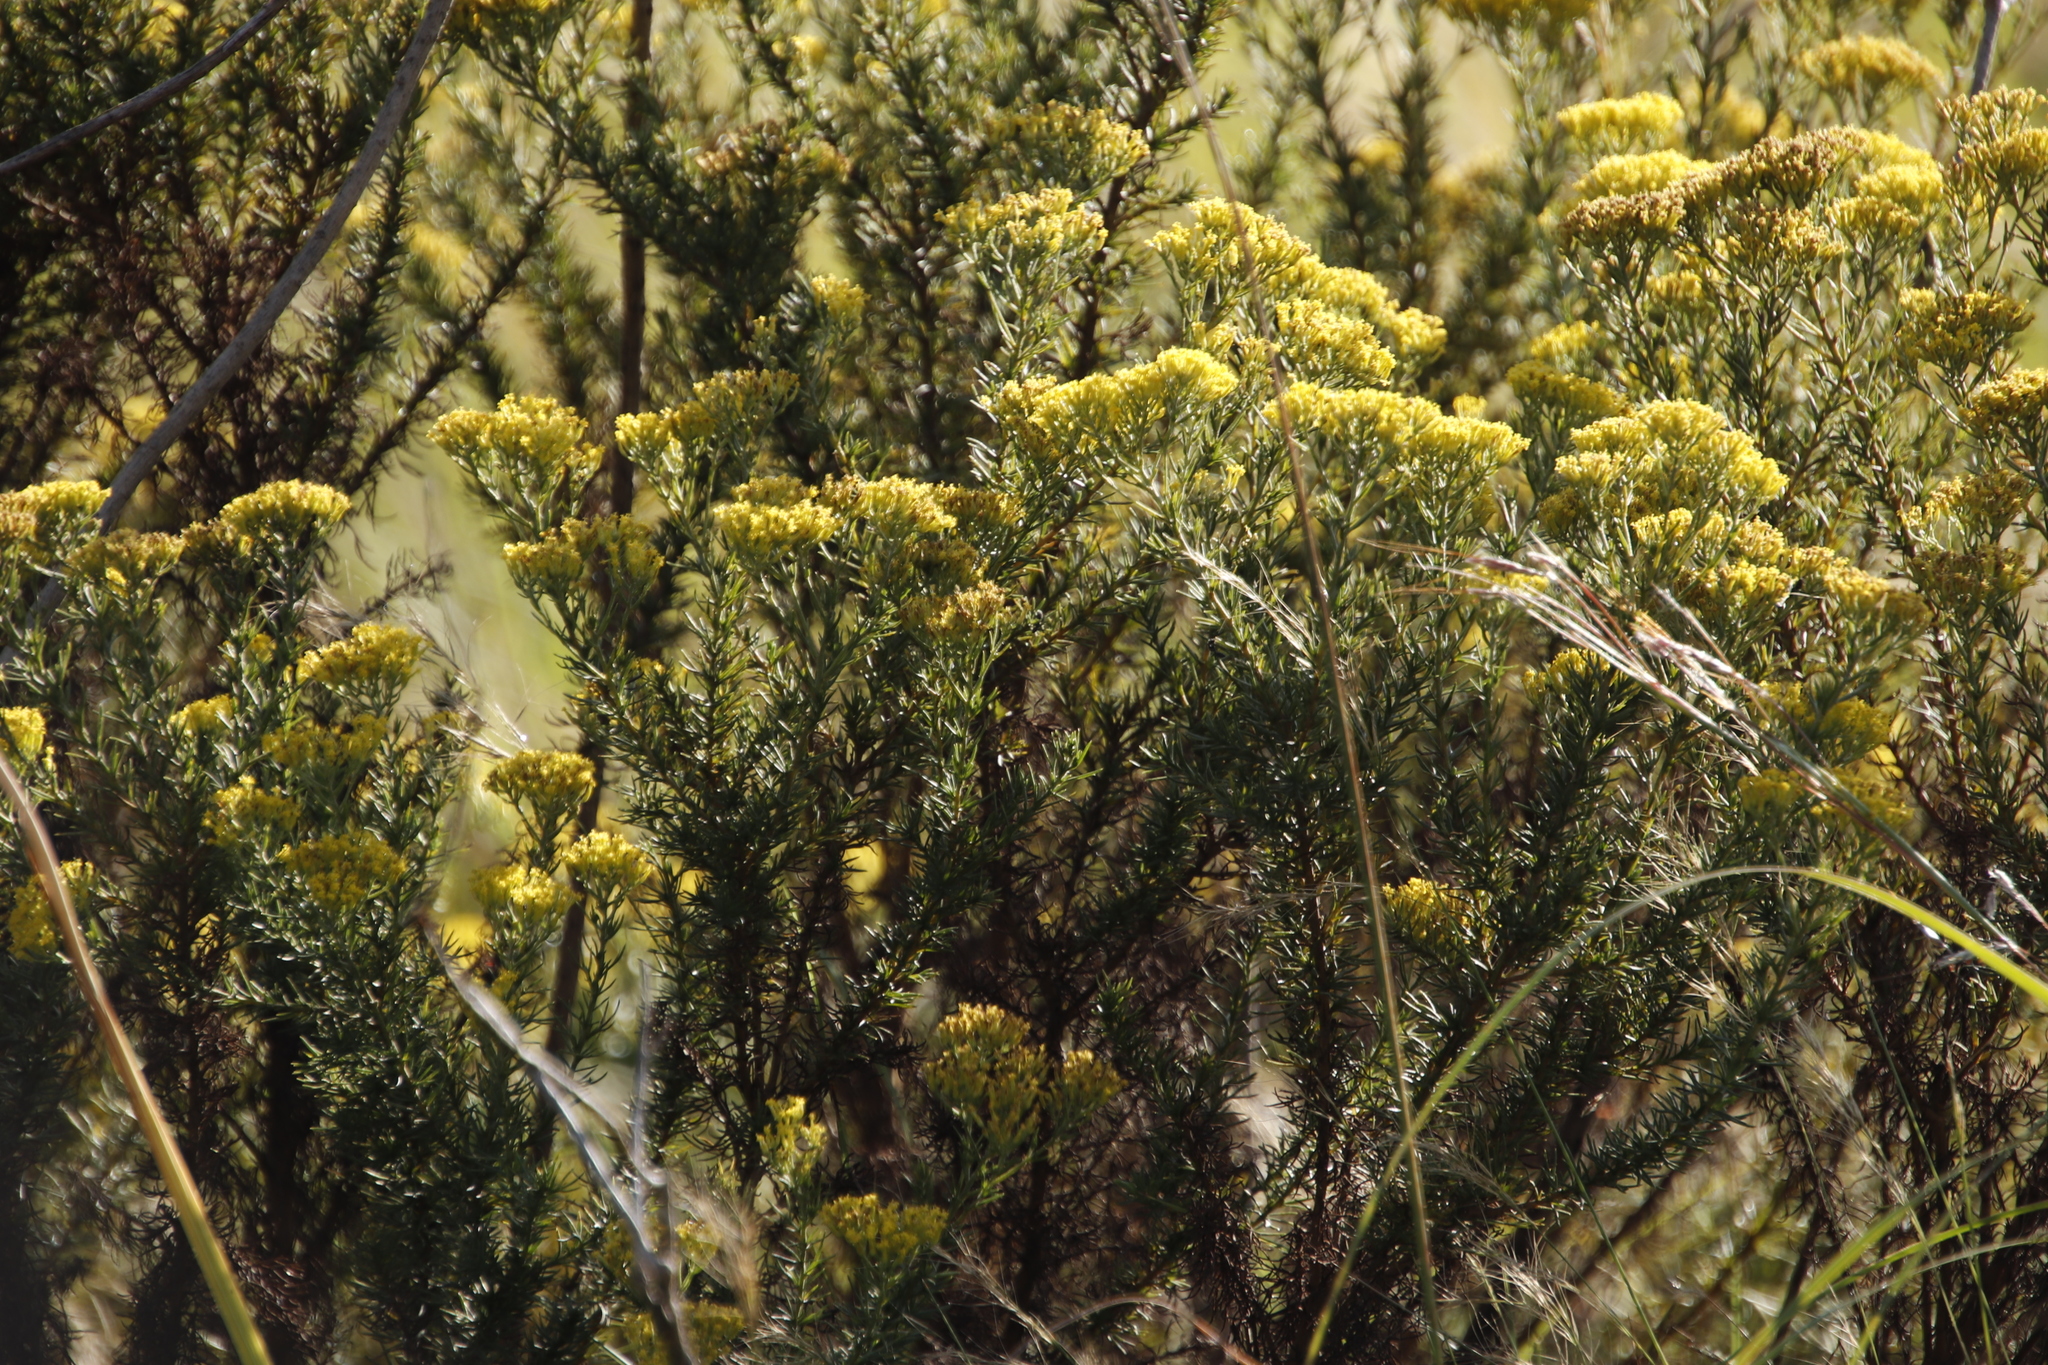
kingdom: Plantae
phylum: Tracheophyta
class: Magnoliopsida
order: Asterales
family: Asteraceae
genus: Phymaspermum
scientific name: Phymaspermum acerosum
